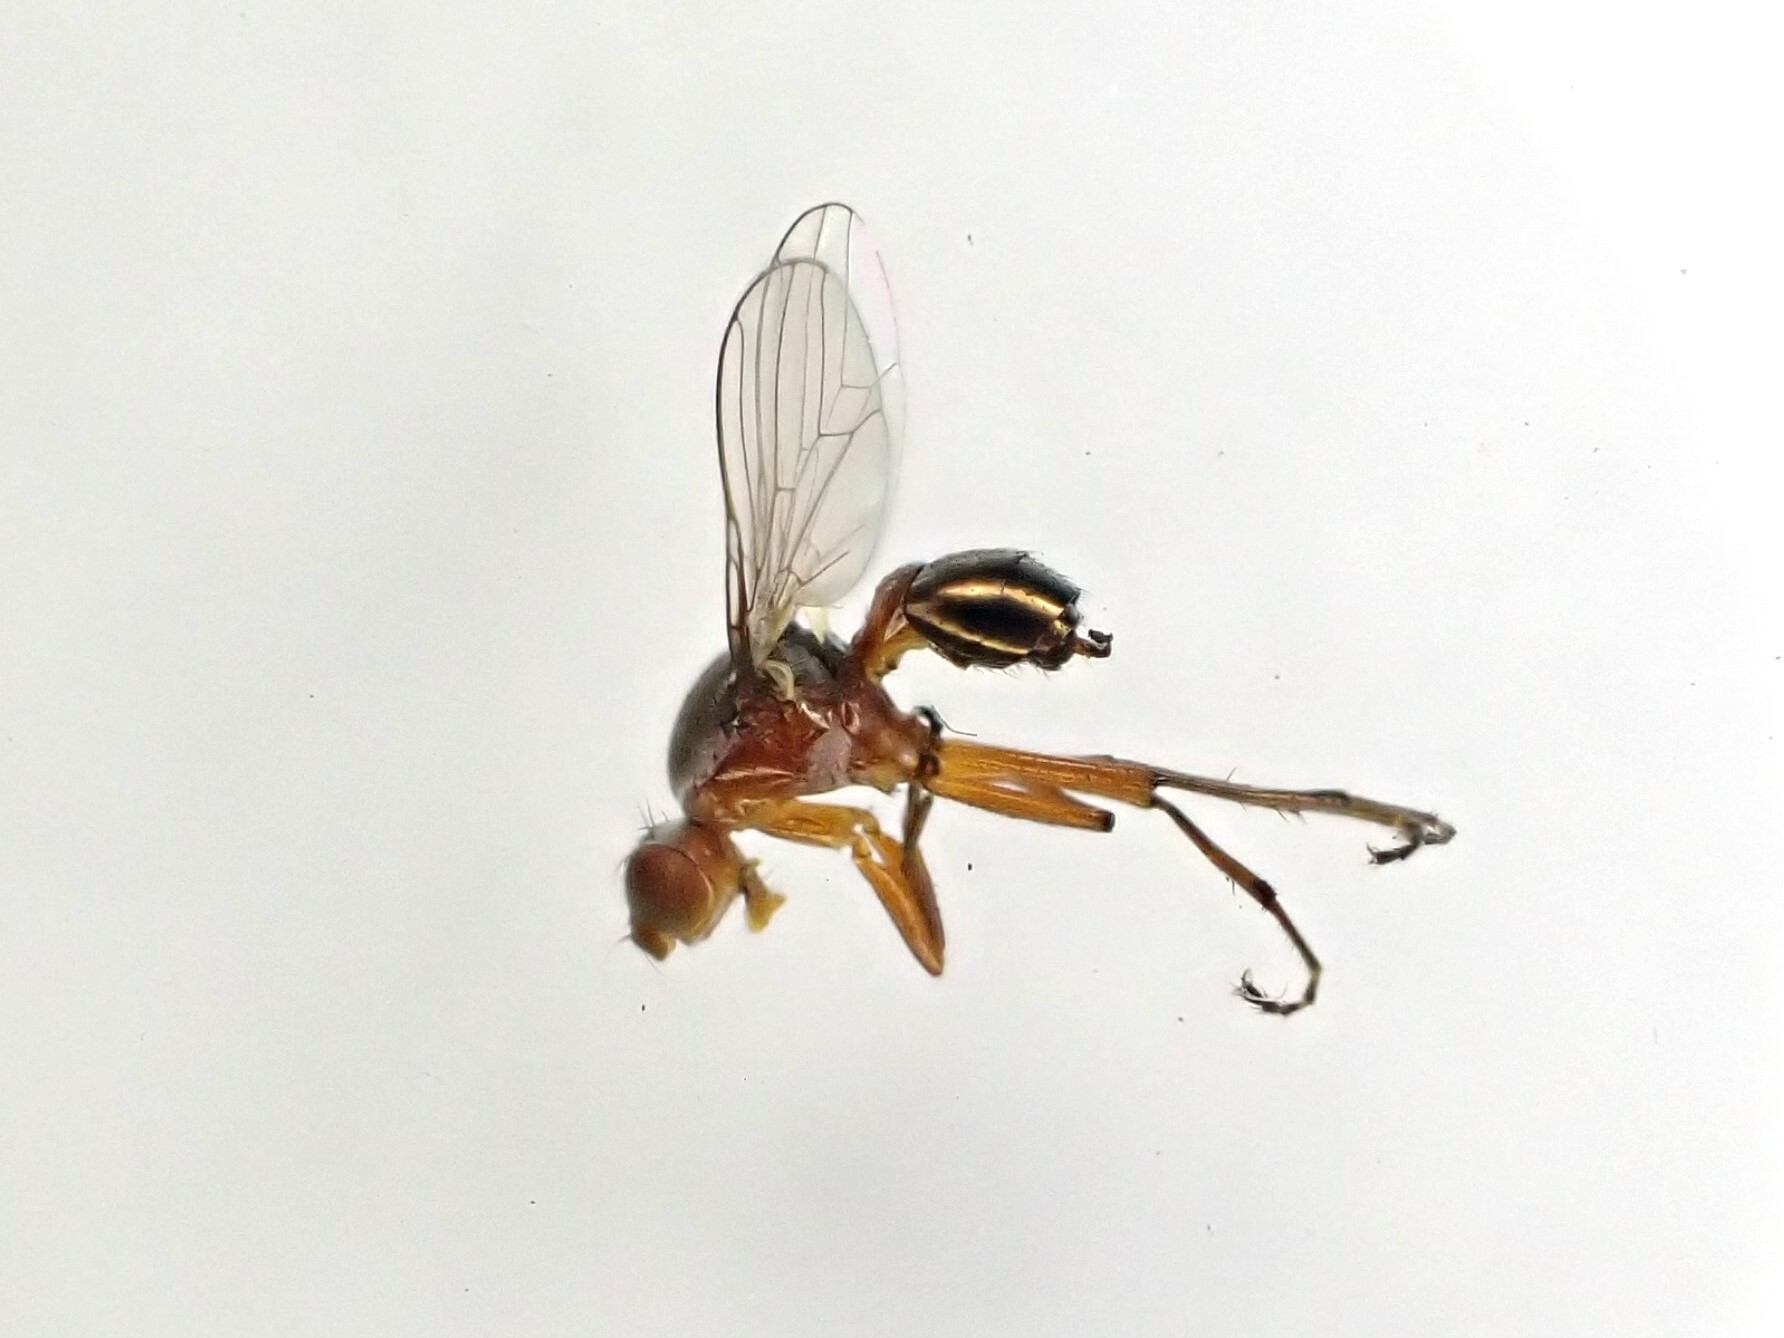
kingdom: Animalia
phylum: Arthropoda
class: Insecta
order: Diptera
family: Sepsidae
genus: Lasionemopoda
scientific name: Lasionemopoda hirsuta
